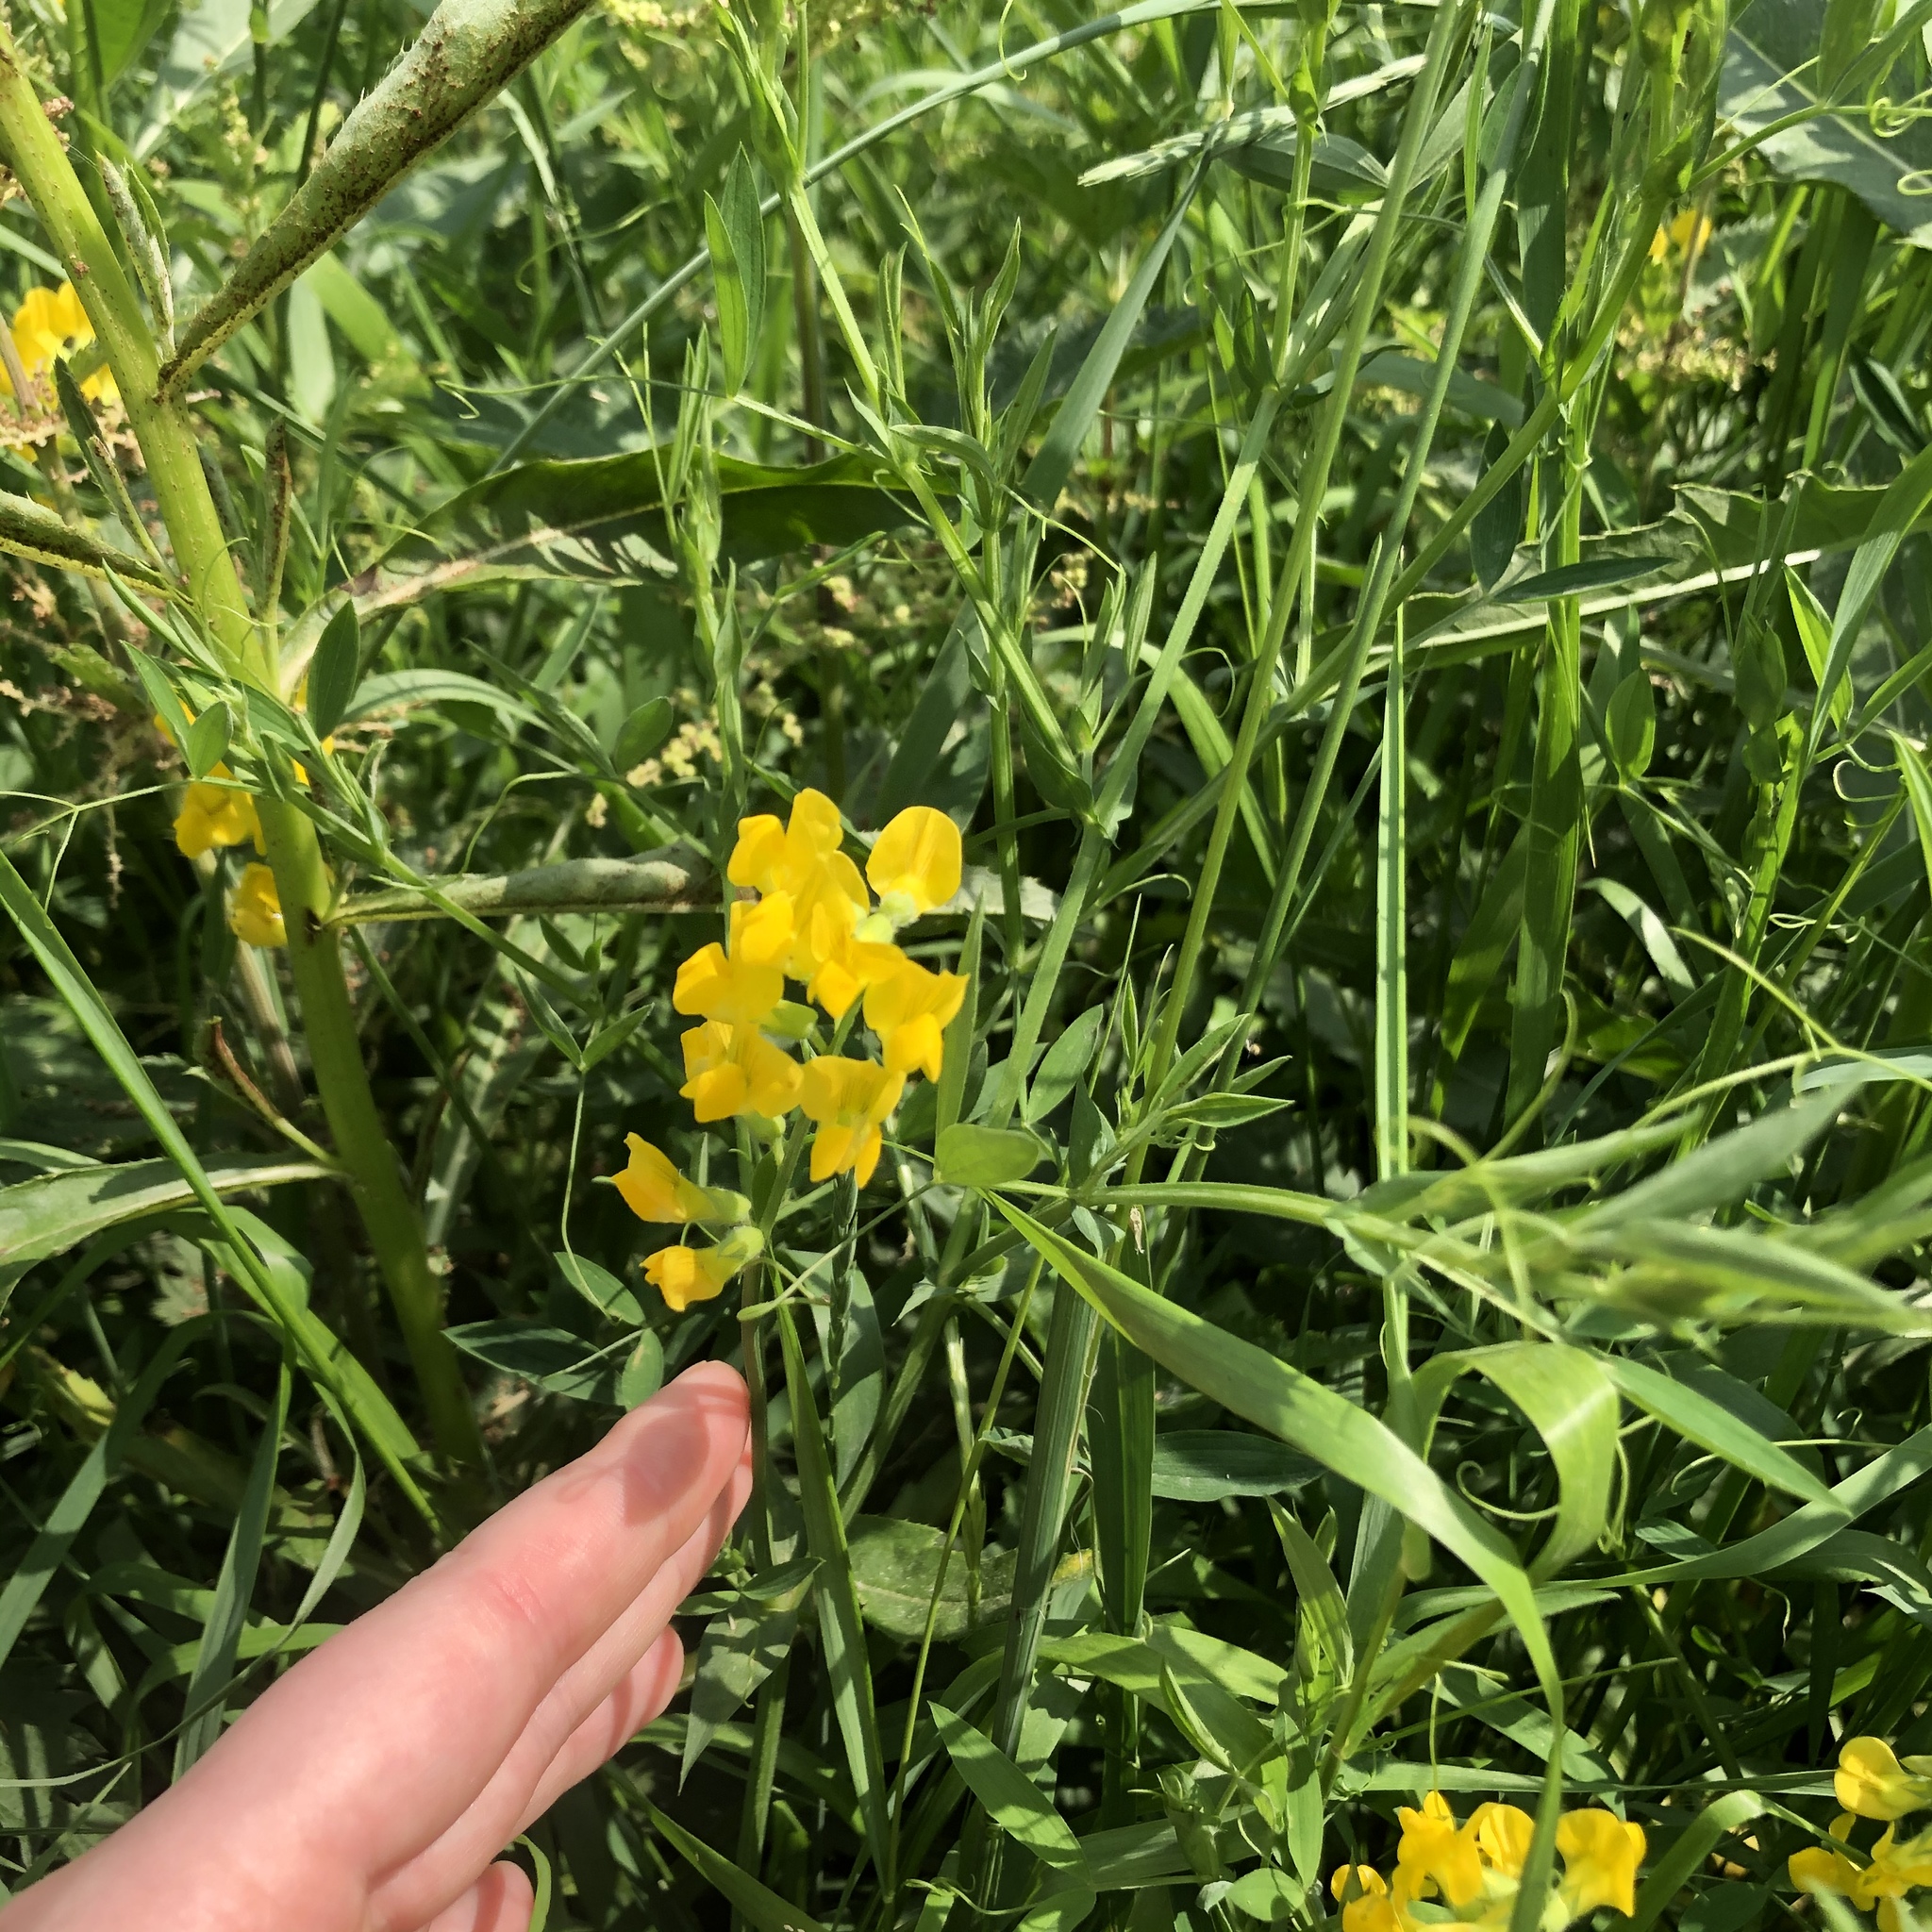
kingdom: Plantae
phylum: Tracheophyta
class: Magnoliopsida
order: Fabales
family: Fabaceae
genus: Lathyrus
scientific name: Lathyrus pratensis
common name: Meadow vetchling
